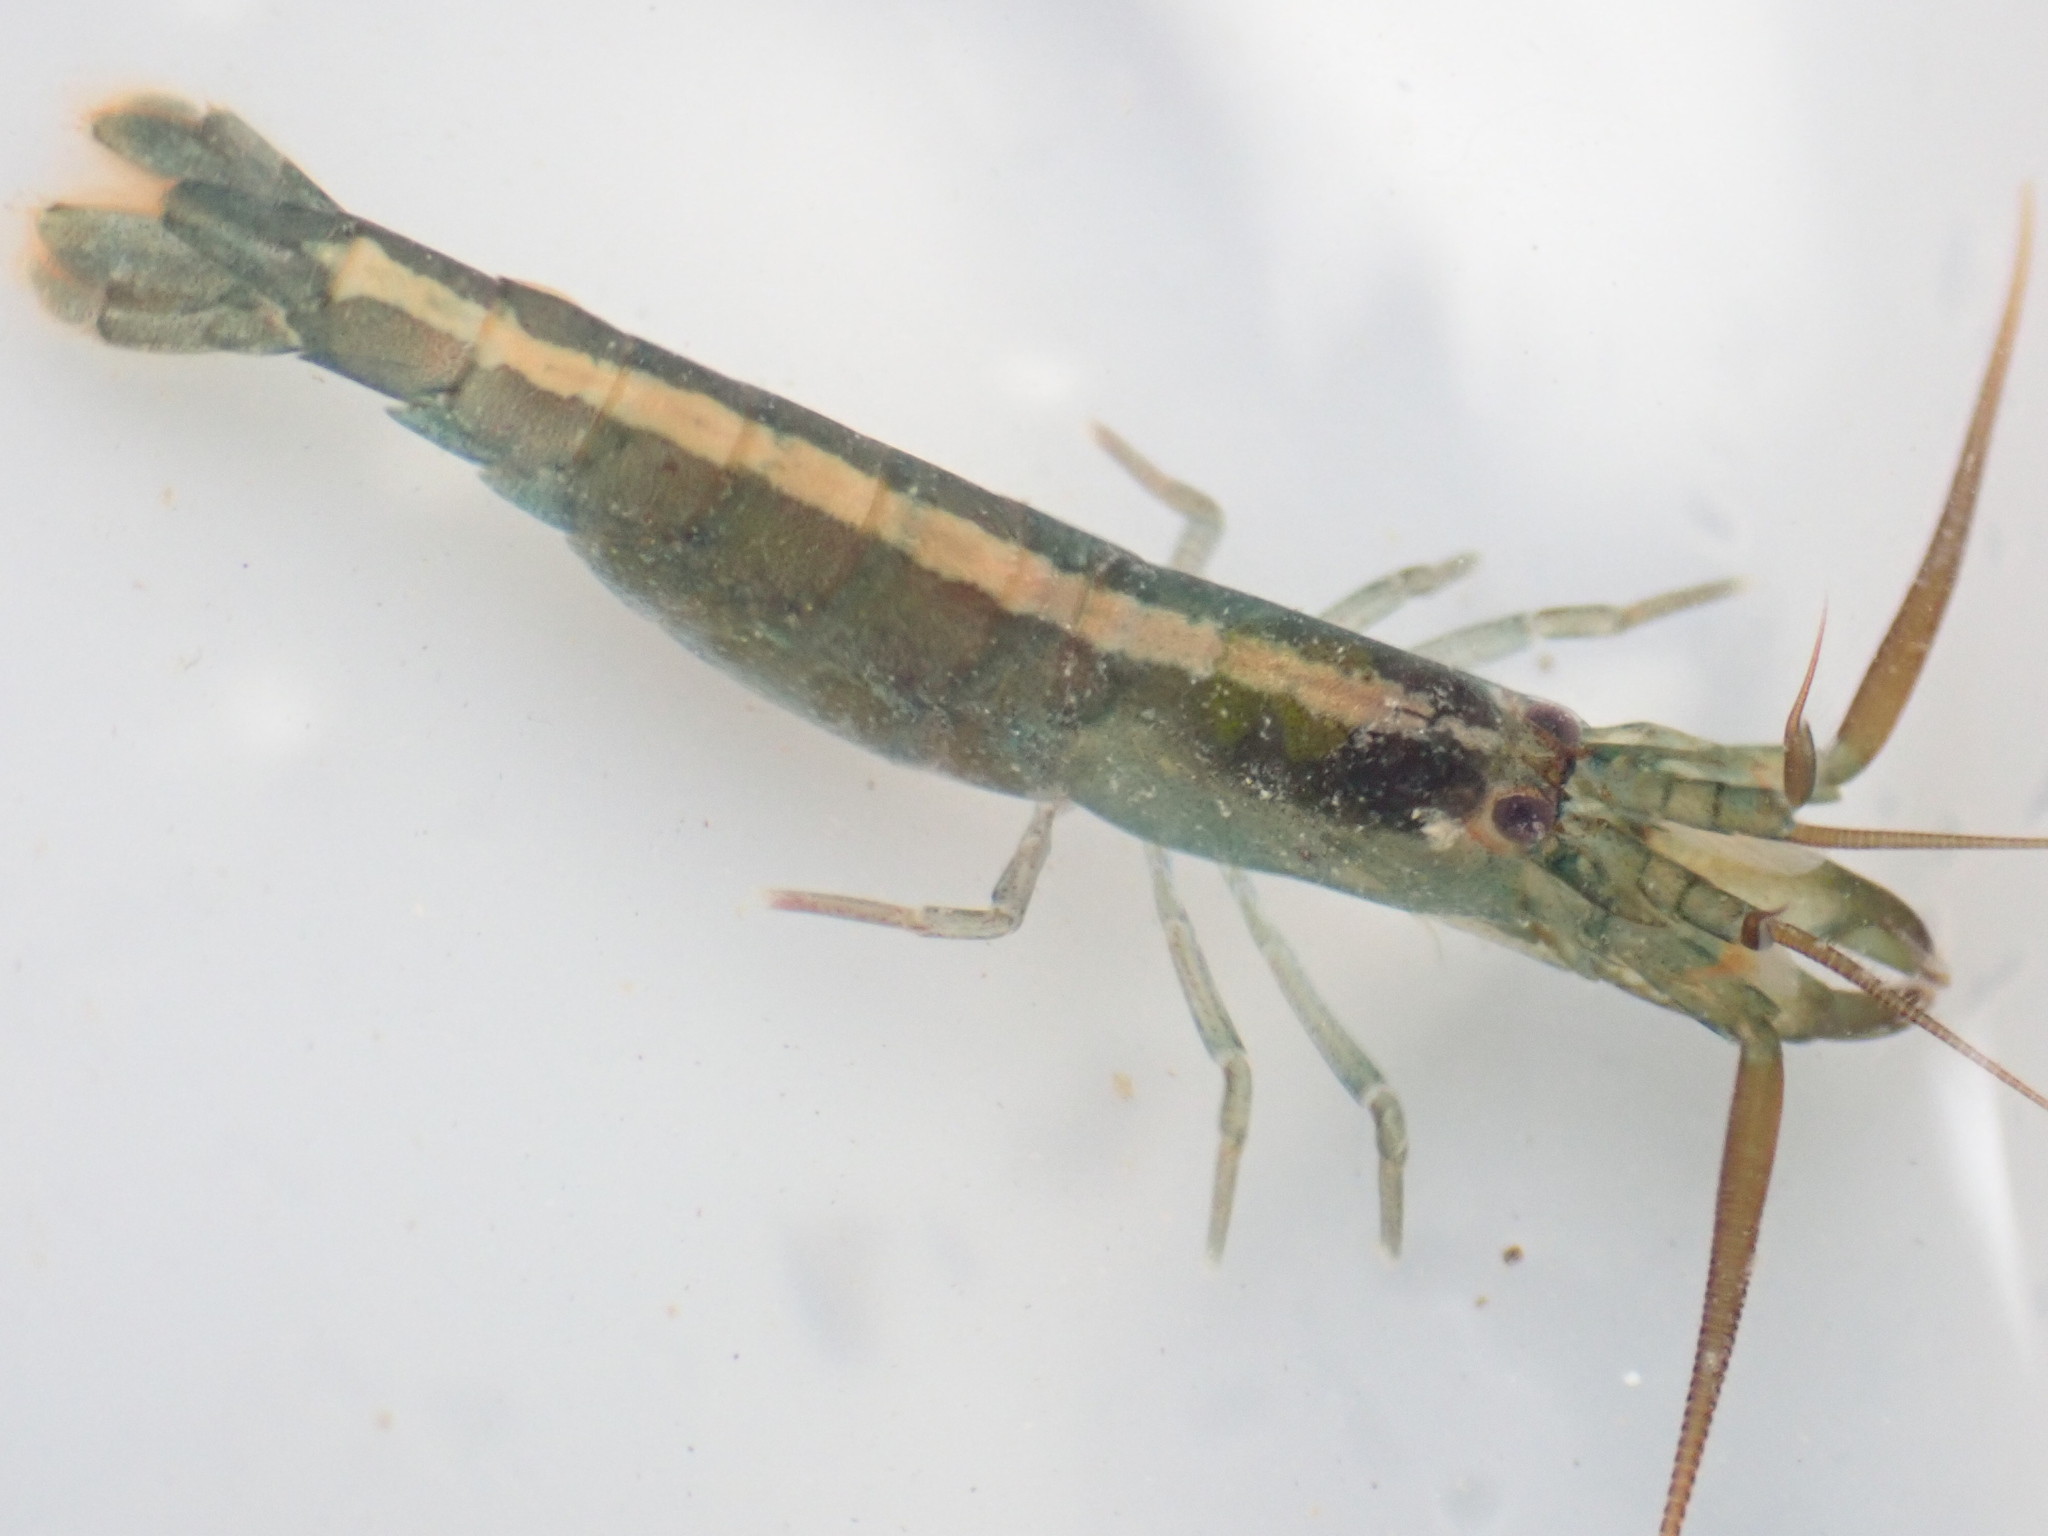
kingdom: Animalia
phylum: Arthropoda
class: Malacostraca
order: Decapoda
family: Alpheidae
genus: Betaeopsis
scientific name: Betaeopsis aequimanus
